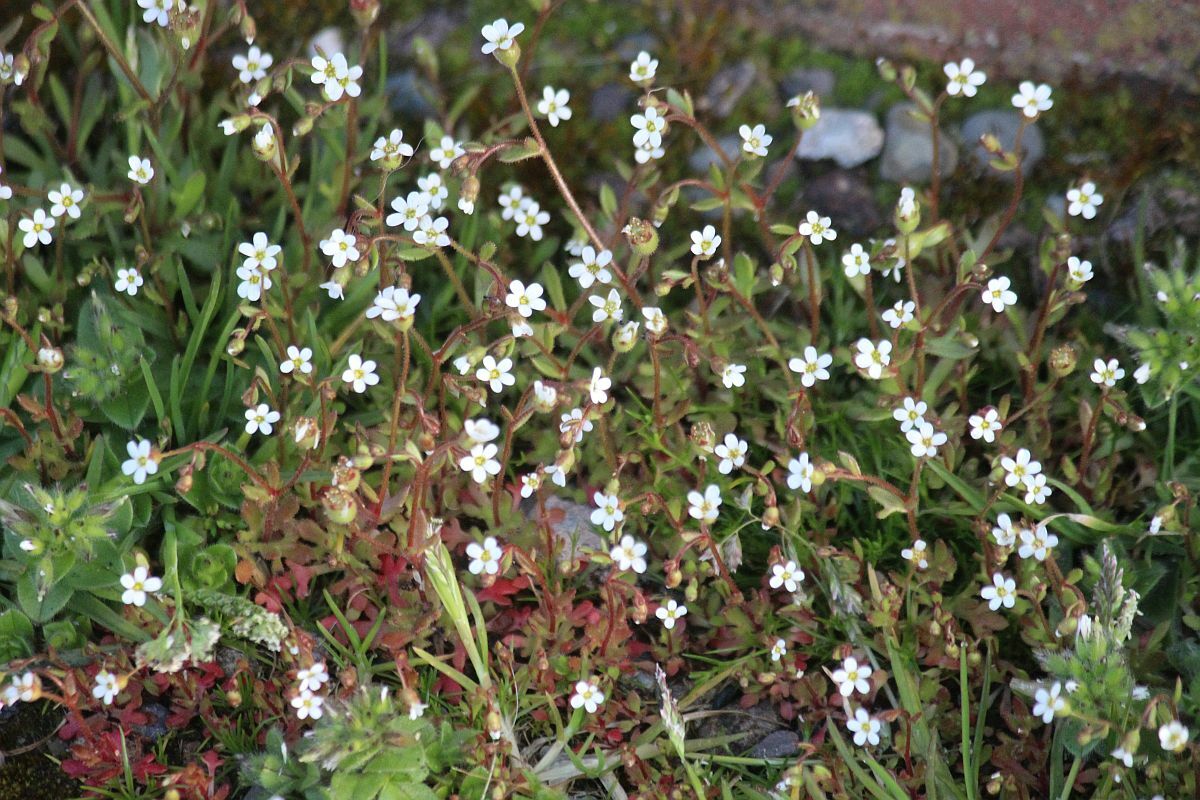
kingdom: Plantae
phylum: Tracheophyta
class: Magnoliopsida
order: Saxifragales
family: Saxifragaceae
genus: Saxifraga
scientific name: Saxifraga tridactylites
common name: Rue-leaved saxifrage
